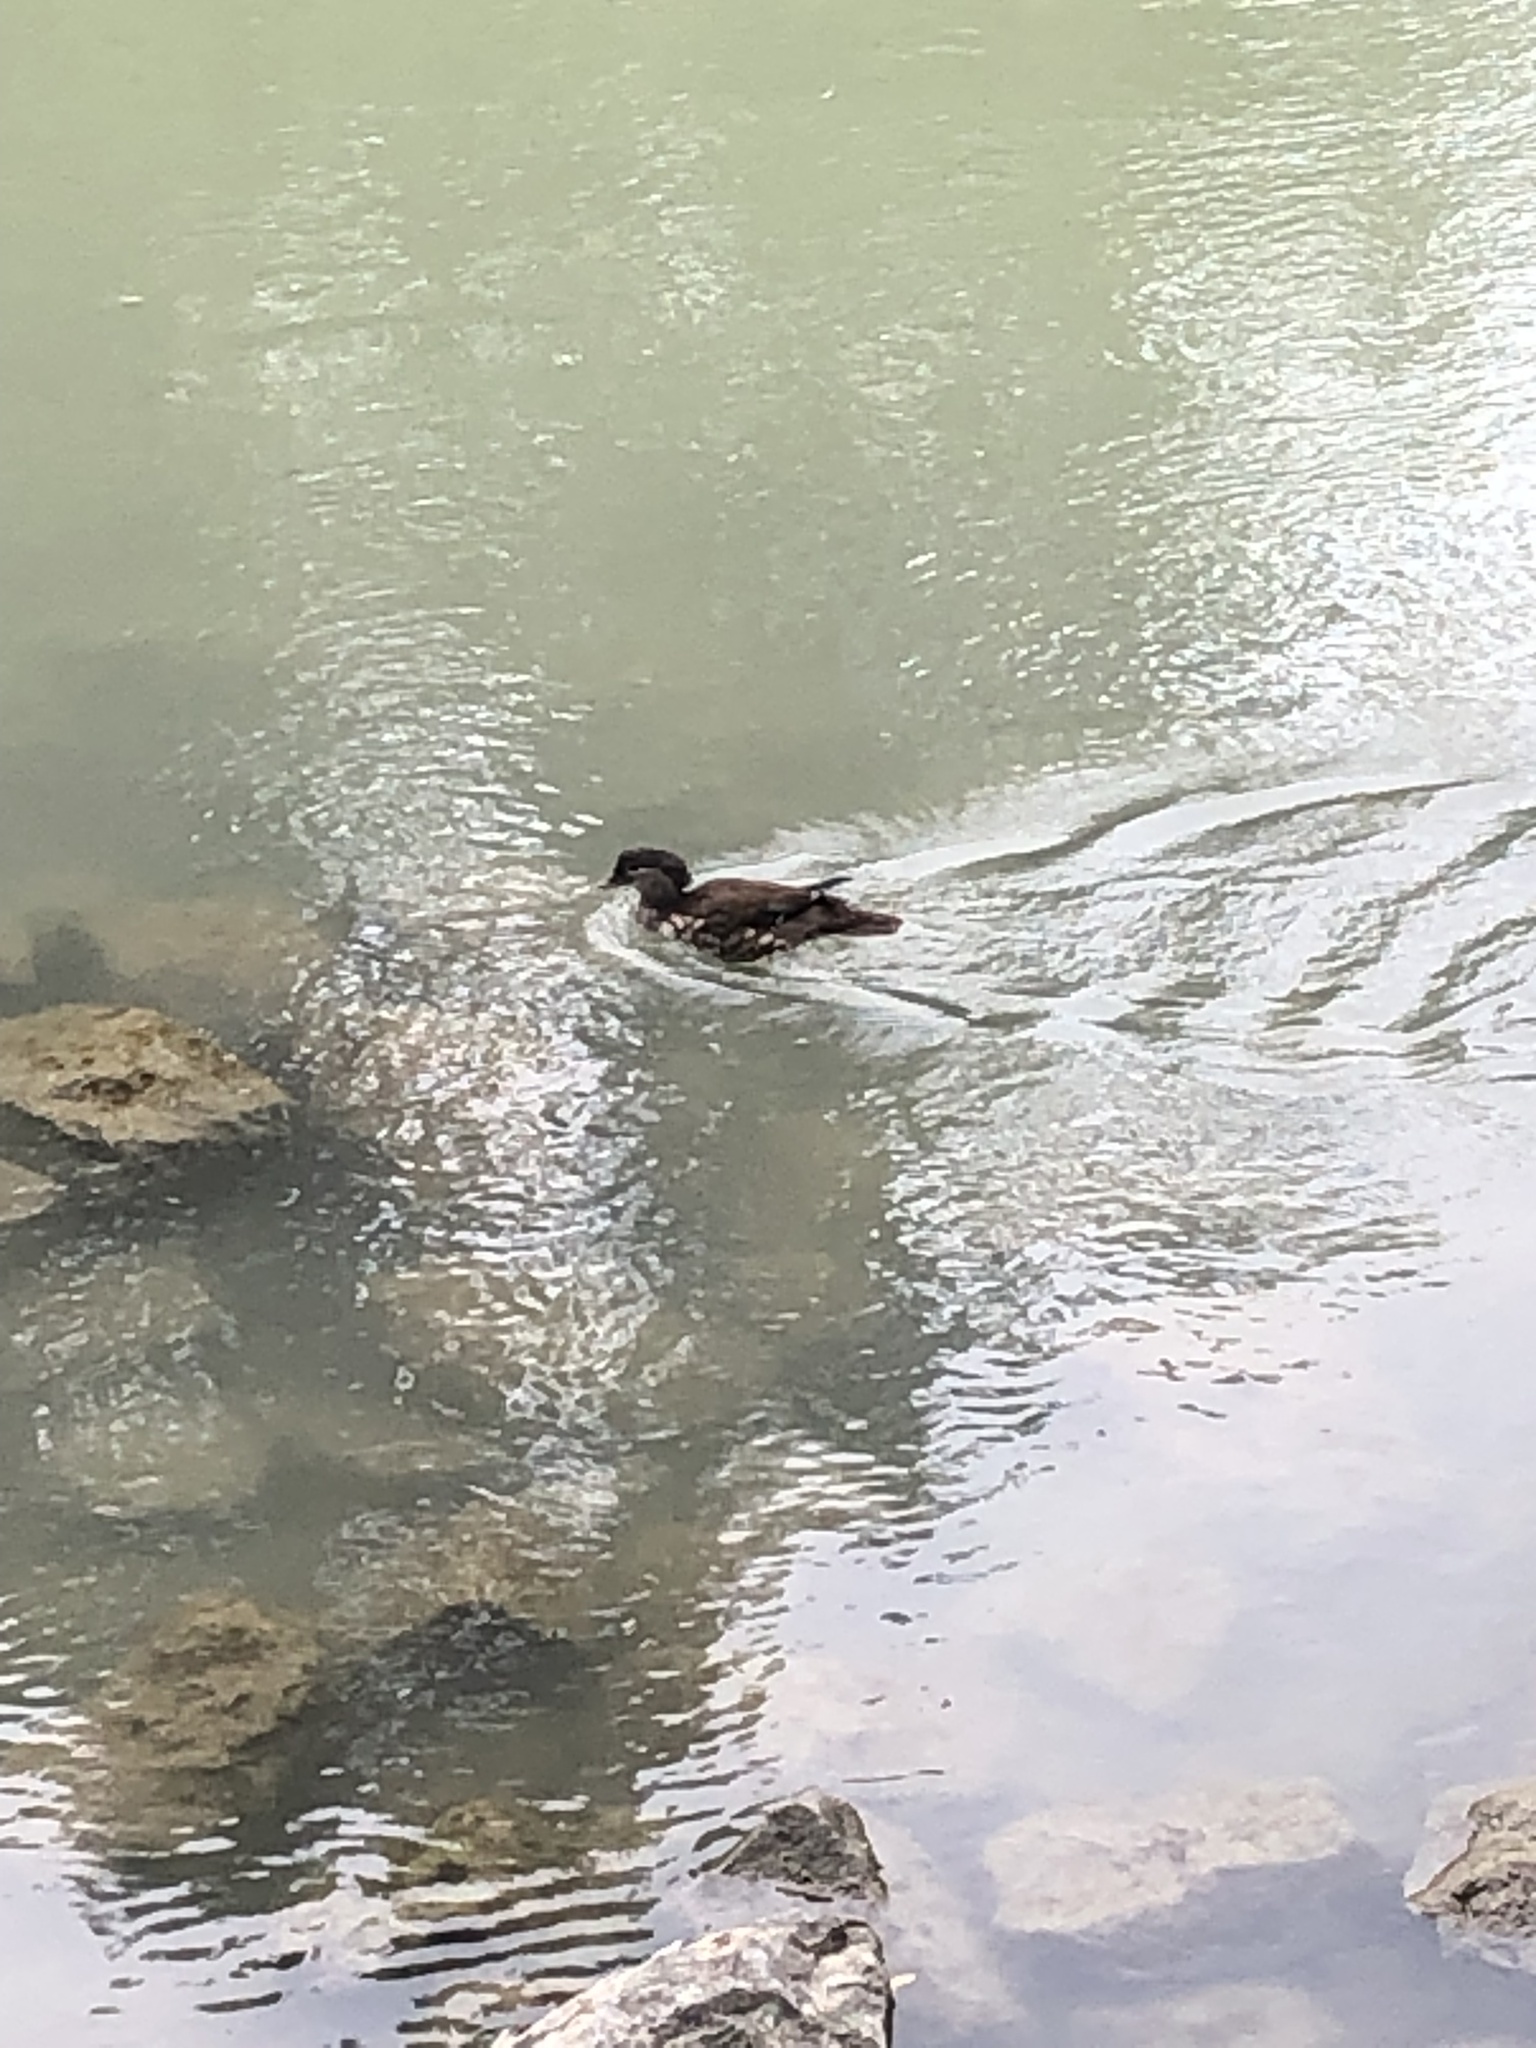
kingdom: Animalia
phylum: Chordata
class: Aves
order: Anseriformes
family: Anatidae
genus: Aix
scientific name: Aix galericulata
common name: Mandarin duck
